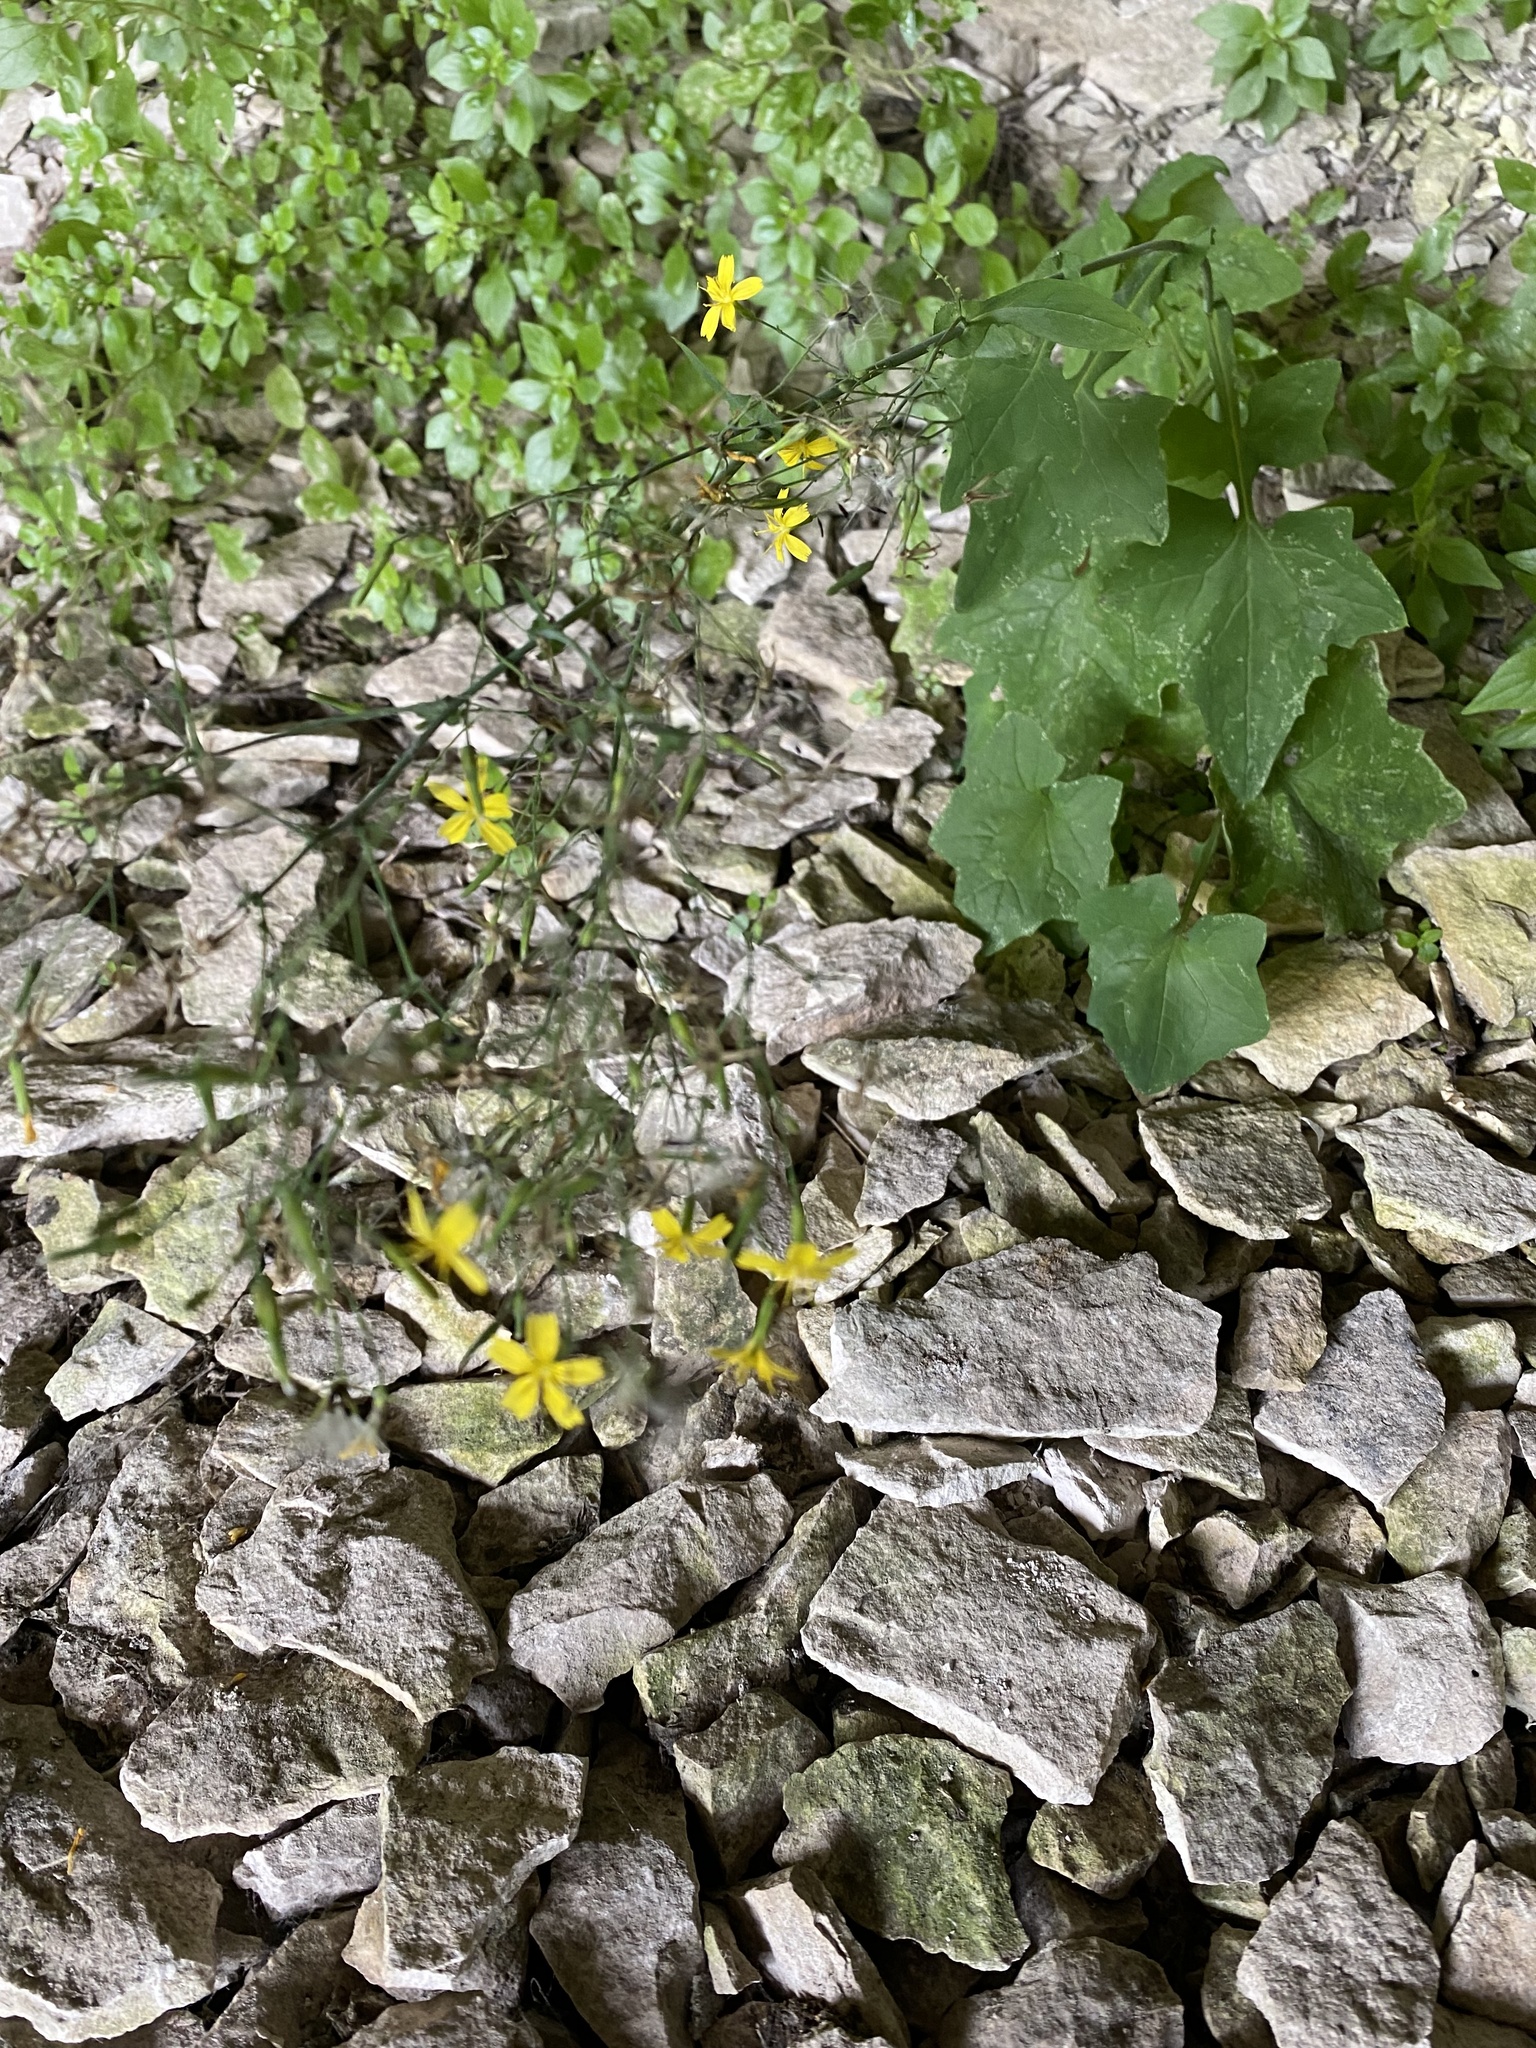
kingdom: Plantae
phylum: Tracheophyta
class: Magnoliopsida
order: Asterales
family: Asteraceae
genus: Mycelis
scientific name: Mycelis muralis
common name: Wall lettuce
